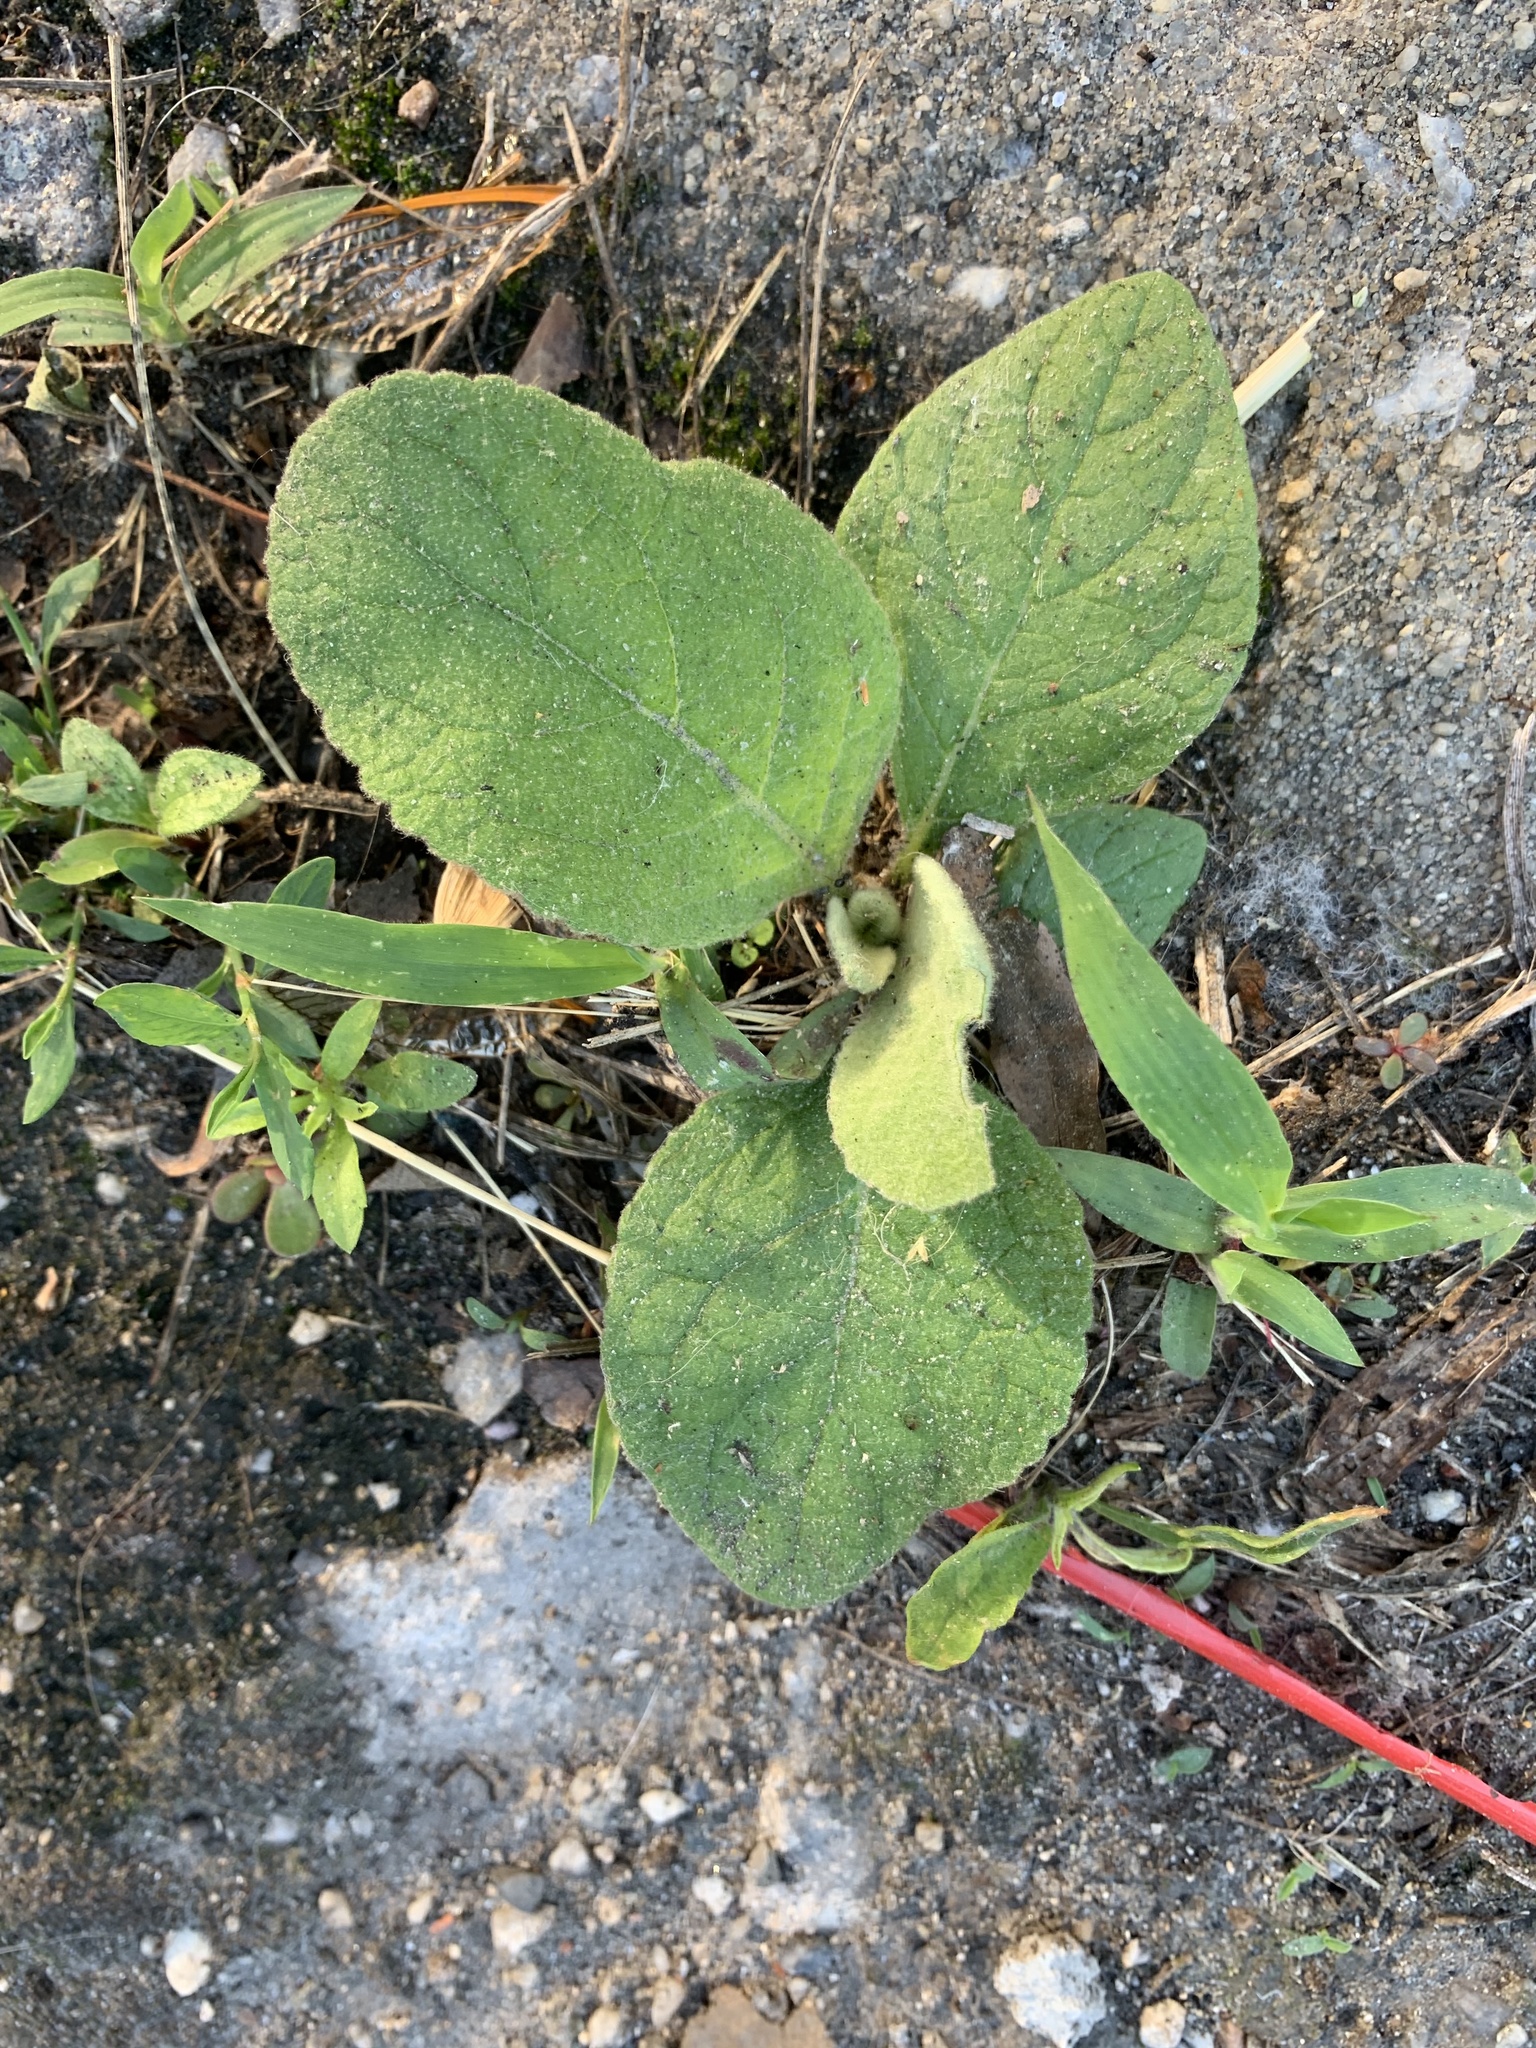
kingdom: Plantae
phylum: Tracheophyta
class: Magnoliopsida
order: Lamiales
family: Scrophulariaceae
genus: Verbascum
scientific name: Verbascum thapsus
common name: Common mullein
